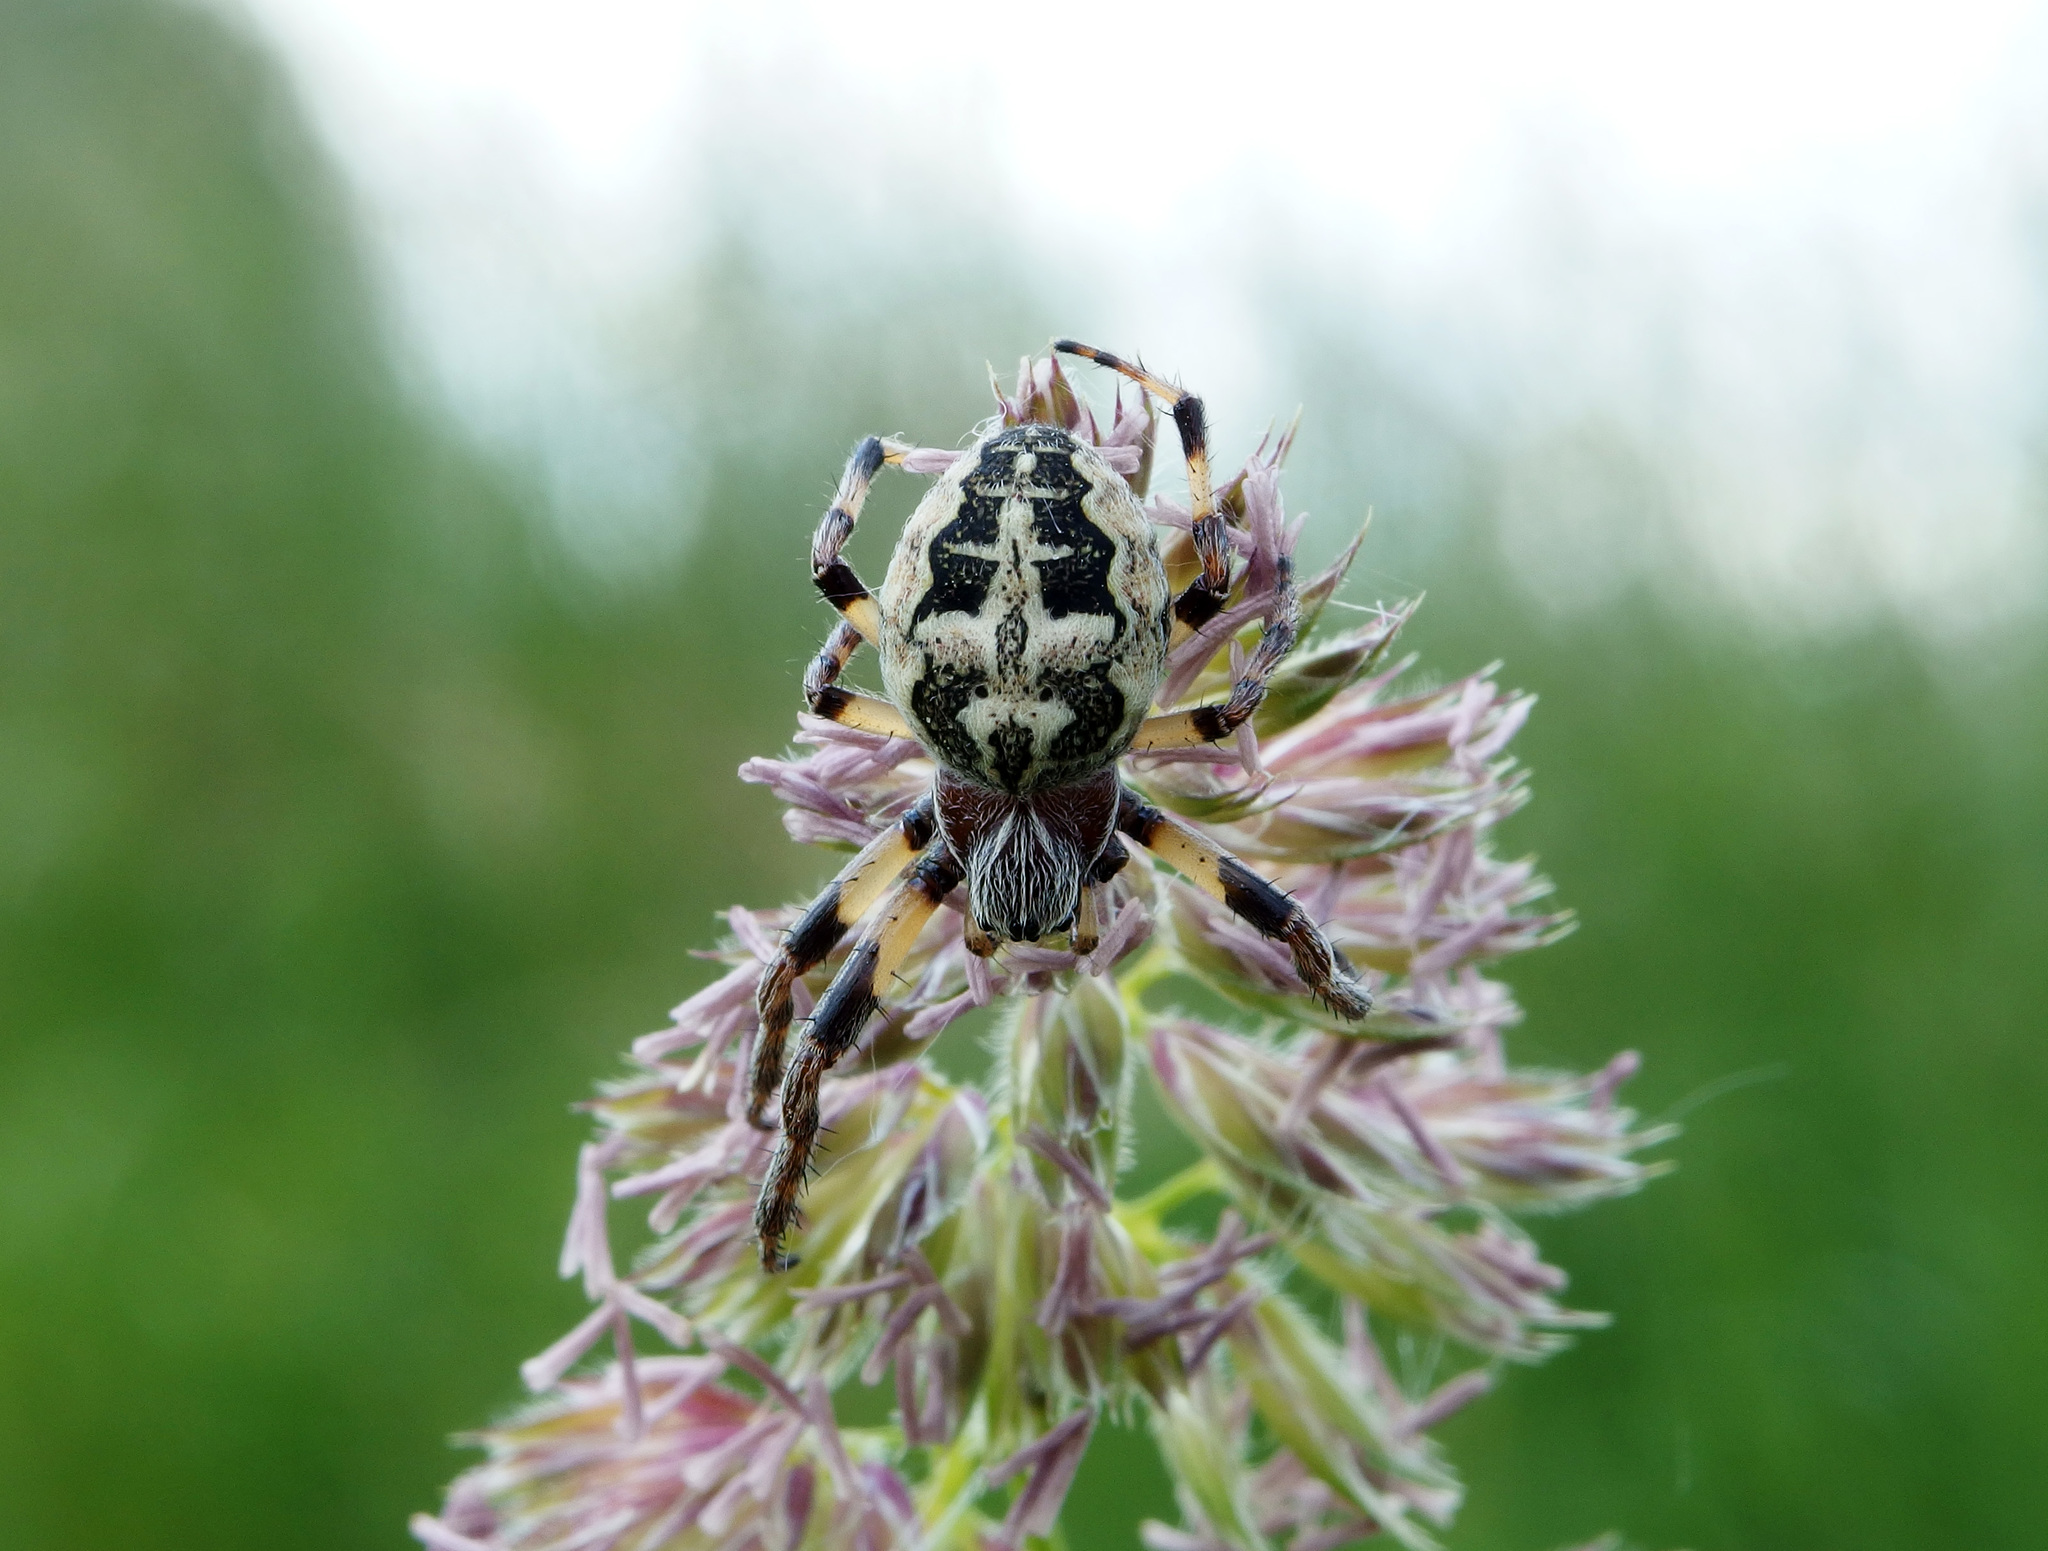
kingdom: Animalia
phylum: Arthropoda
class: Arachnida
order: Araneae
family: Araneidae
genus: Larinioides
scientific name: Larinioides cornutus
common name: Furrow orbweaver
